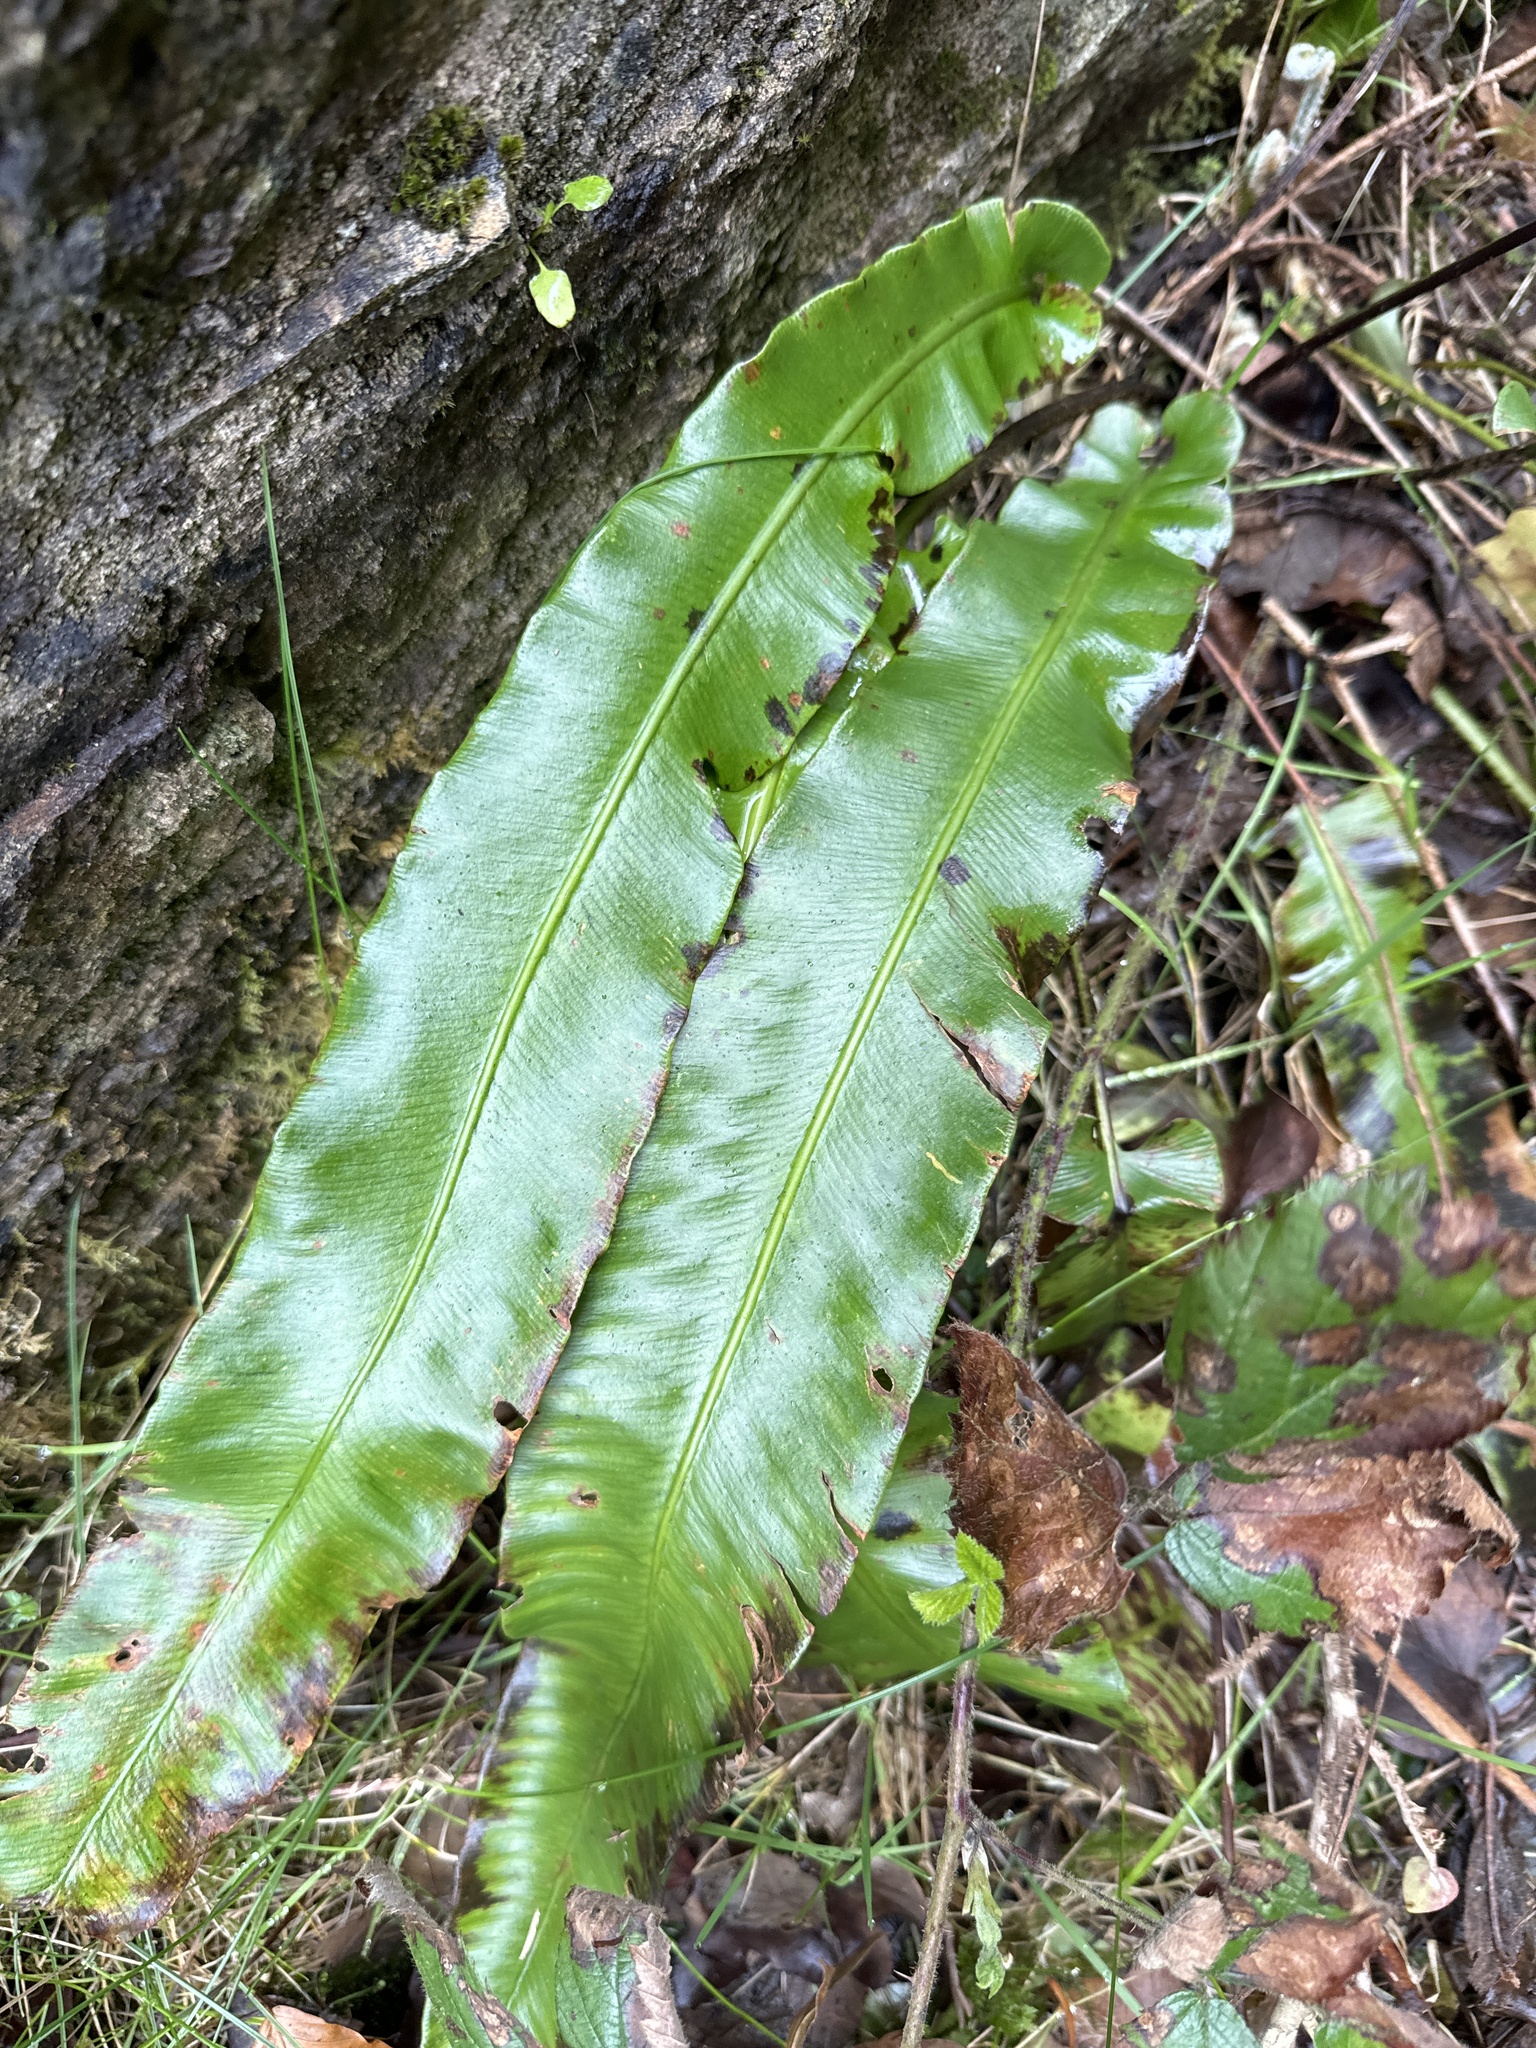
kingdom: Plantae
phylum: Tracheophyta
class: Polypodiopsida
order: Polypodiales
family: Aspleniaceae
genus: Asplenium
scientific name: Asplenium scolopendrium
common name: Hart's-tongue fern
